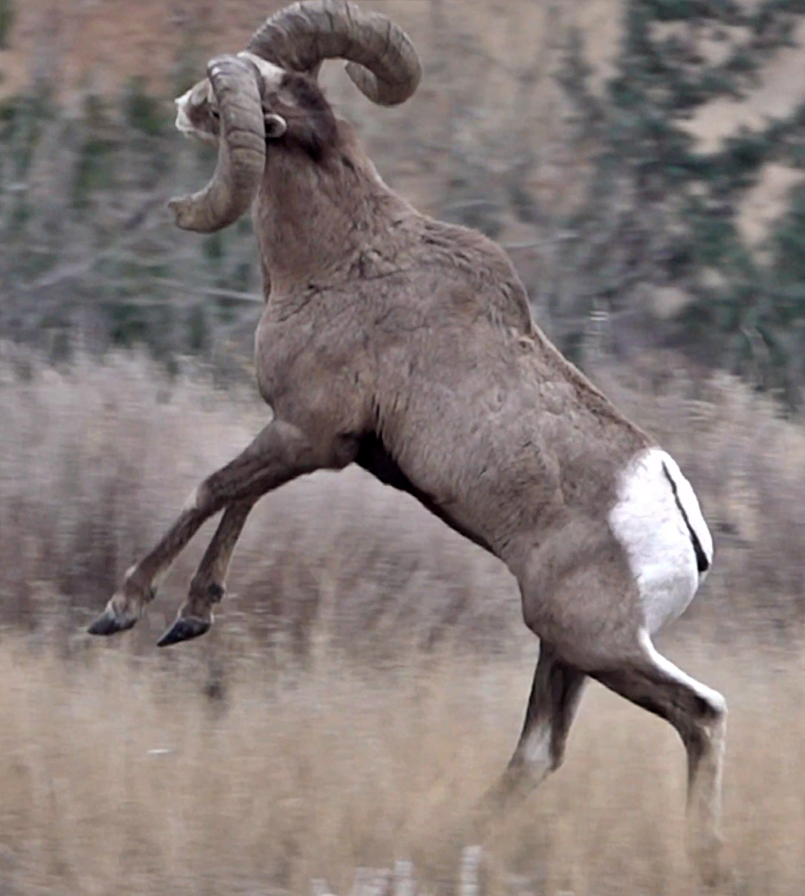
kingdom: Animalia
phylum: Chordata
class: Mammalia
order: Artiodactyla
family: Bovidae
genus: Ovis
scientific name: Ovis canadensis
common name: Bighorn sheep
